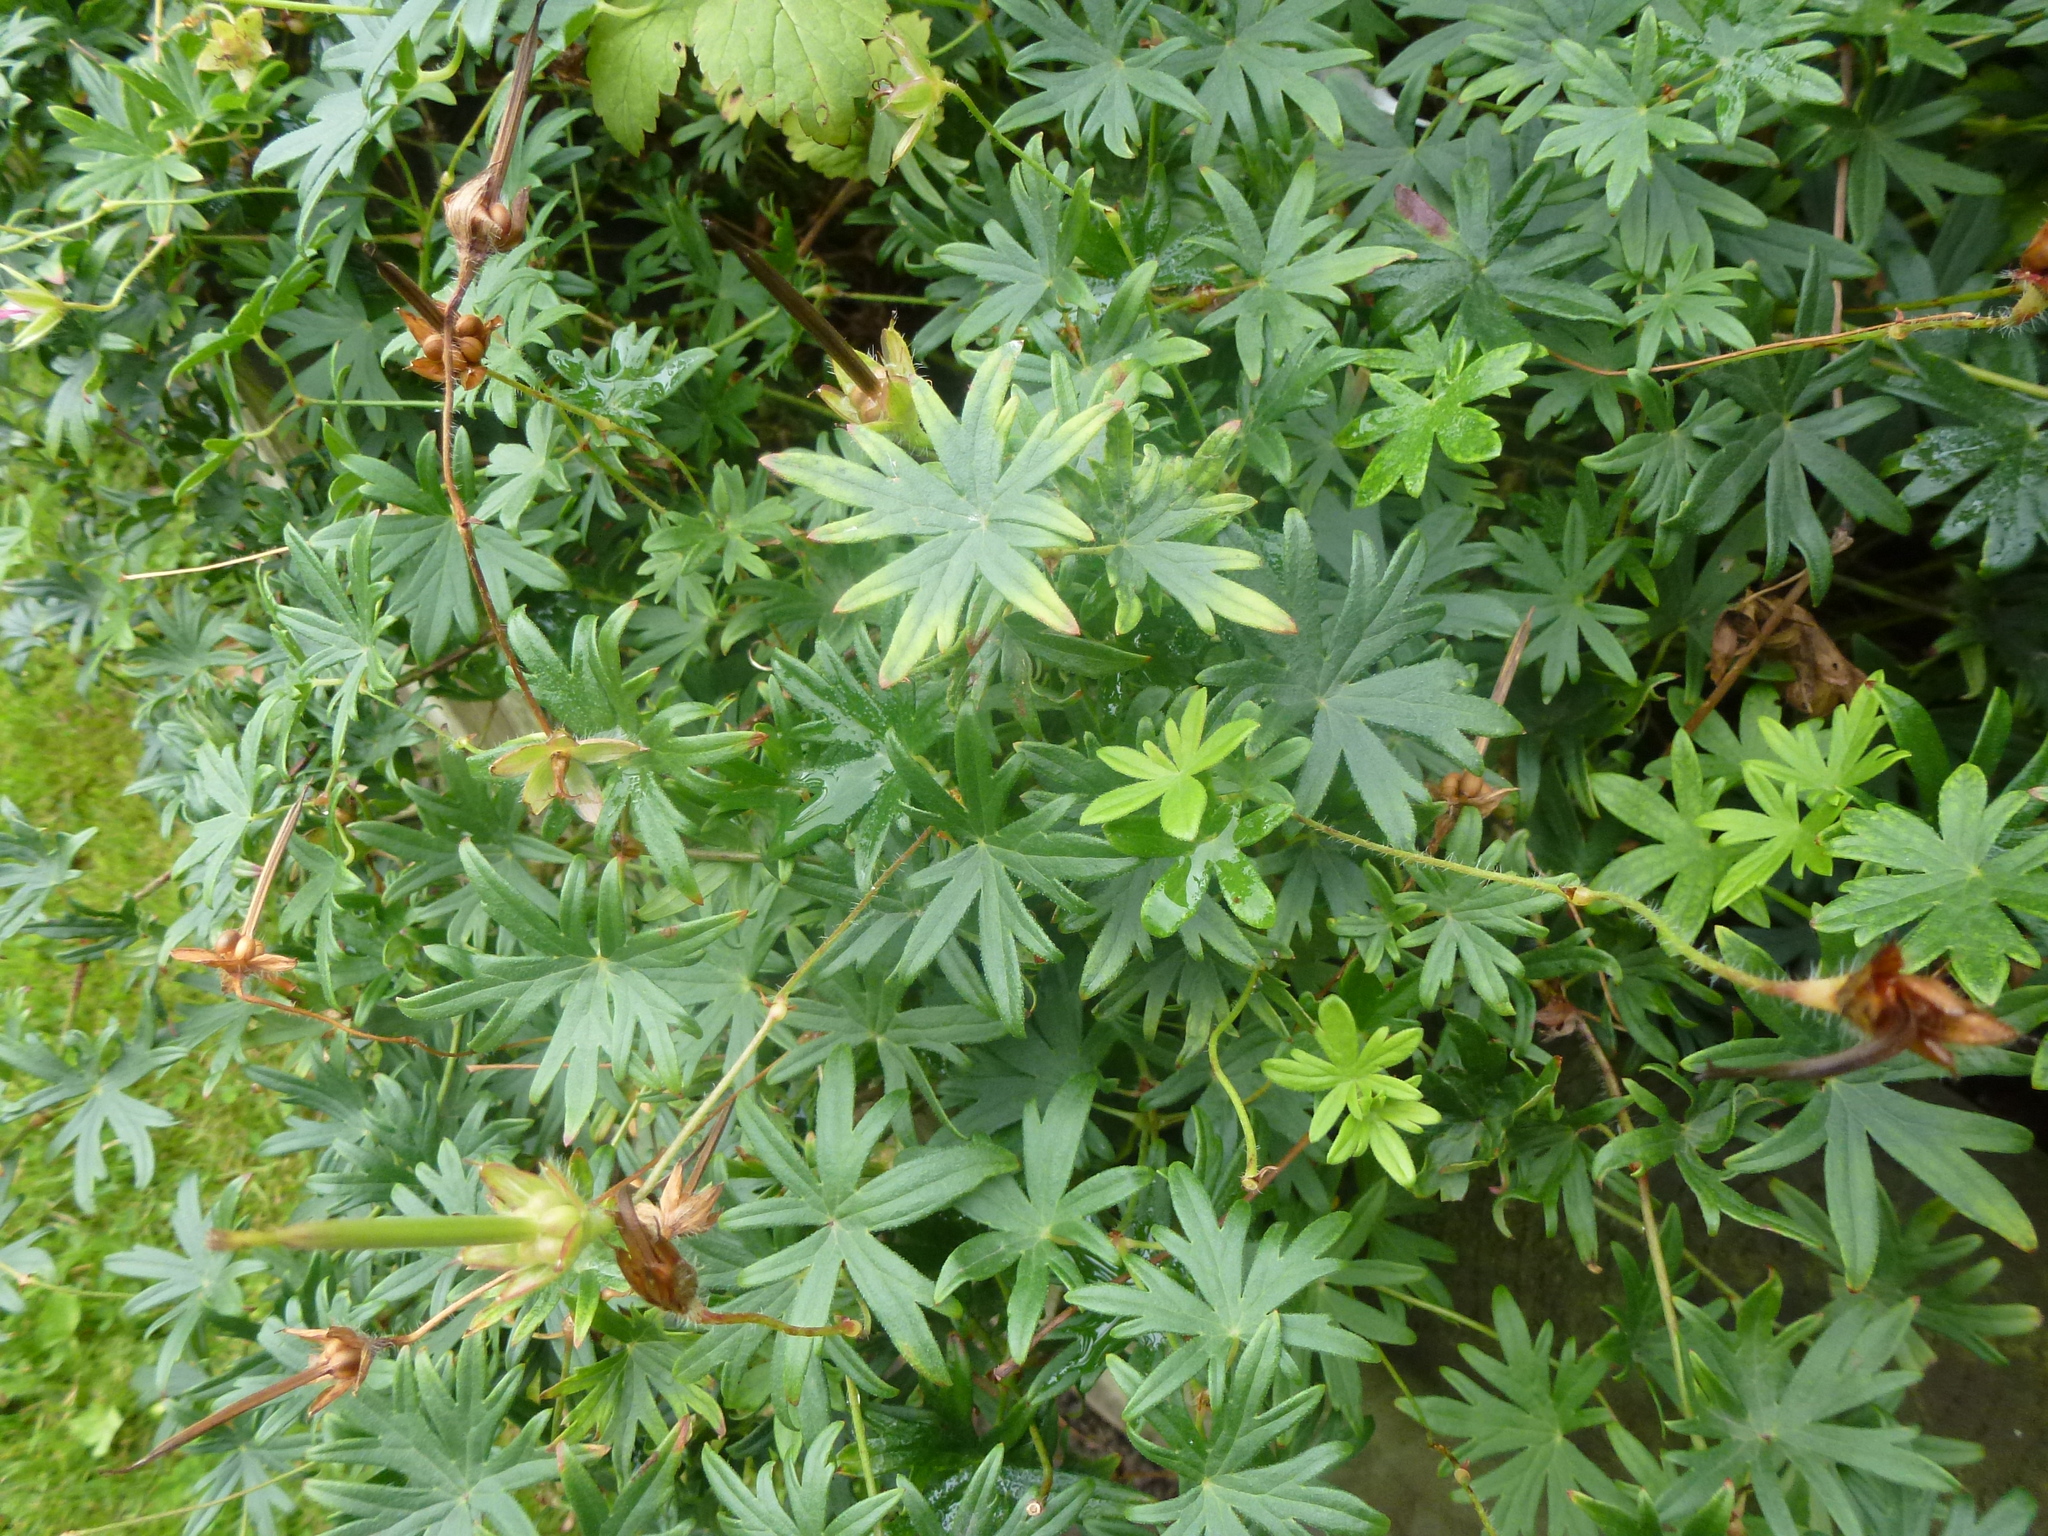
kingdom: Plantae
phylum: Tracheophyta
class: Magnoliopsida
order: Geraniales
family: Geraniaceae
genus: Geranium
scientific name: Geranium sanguineum
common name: Bloody crane's-bill
